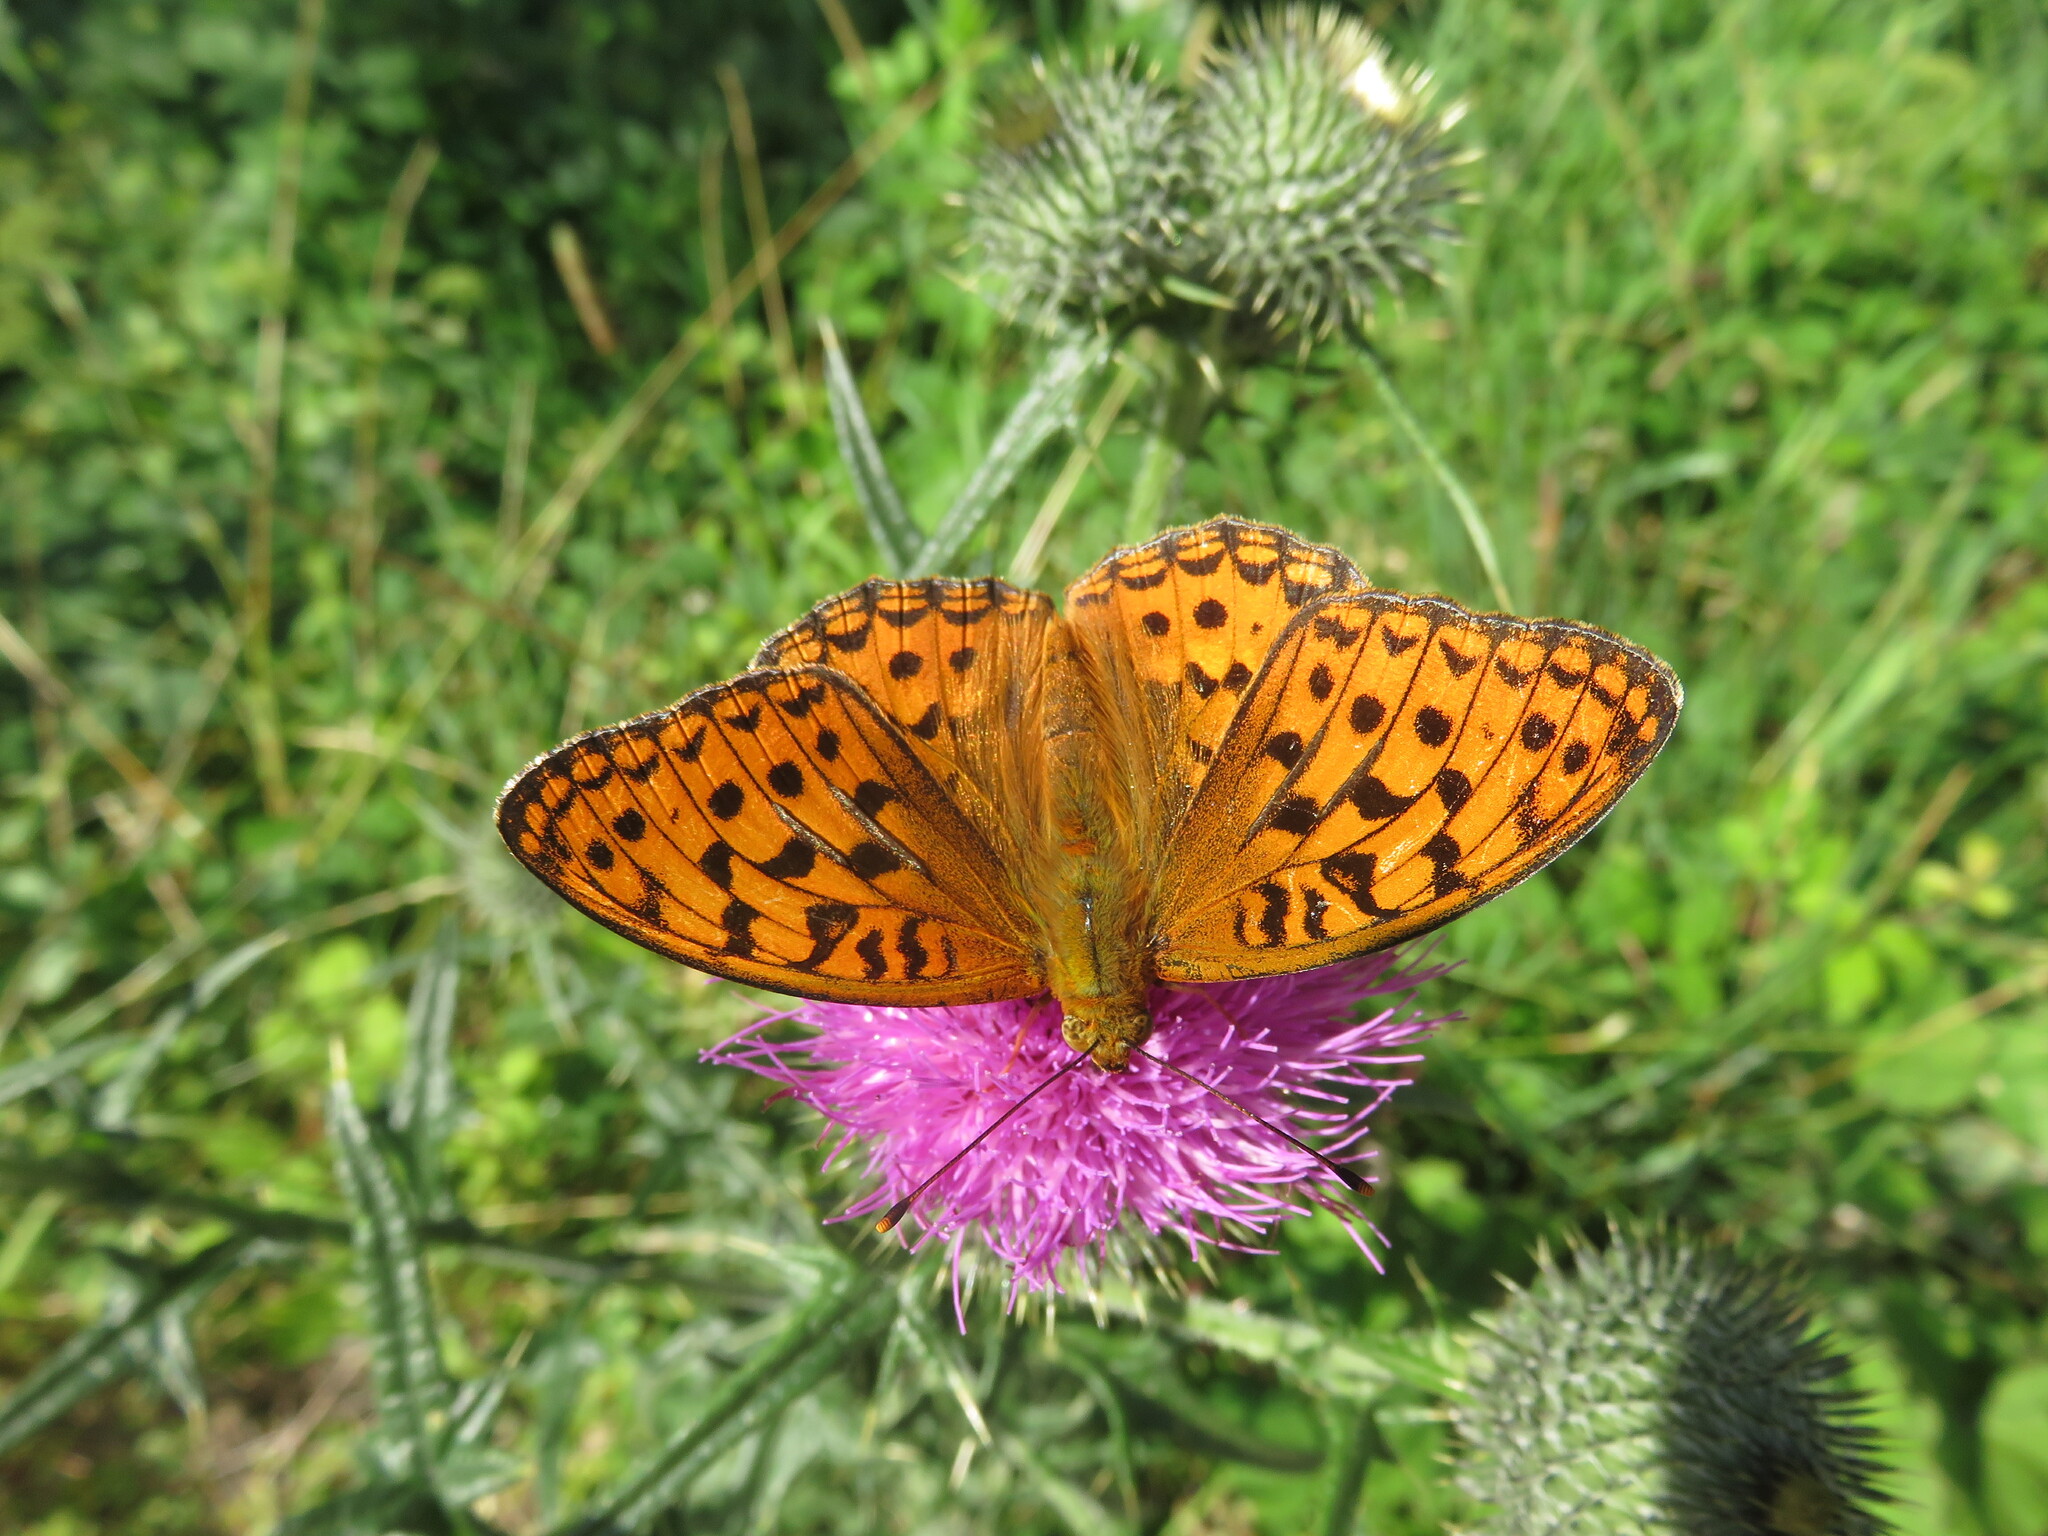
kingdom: Animalia
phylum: Arthropoda
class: Insecta
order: Lepidoptera
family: Nymphalidae
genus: Fabriciana
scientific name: Fabriciana adippe
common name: High brown fritillary
